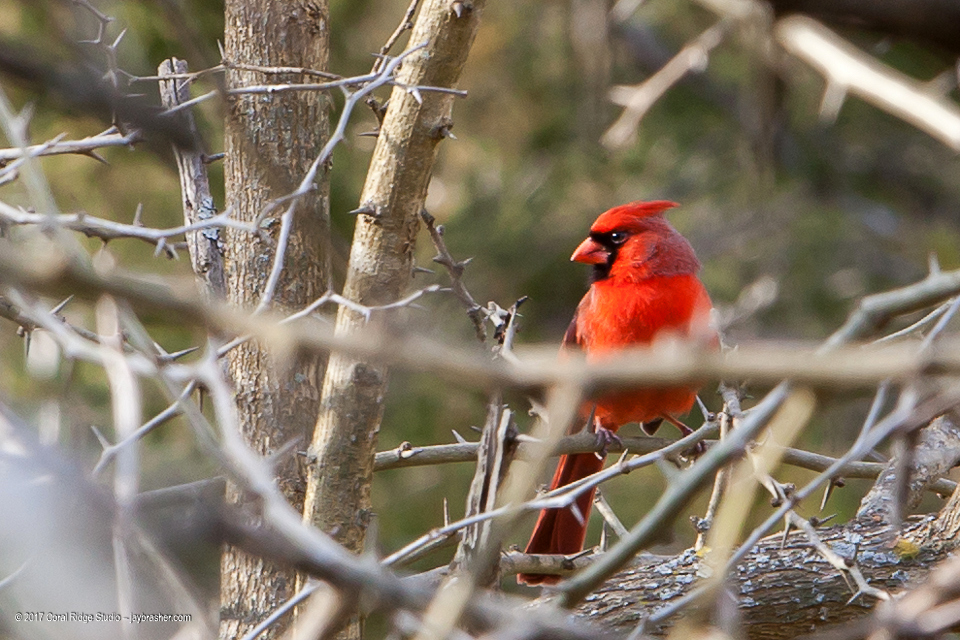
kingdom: Animalia
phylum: Chordata
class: Aves
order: Passeriformes
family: Cardinalidae
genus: Cardinalis
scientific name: Cardinalis cardinalis
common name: Northern cardinal
